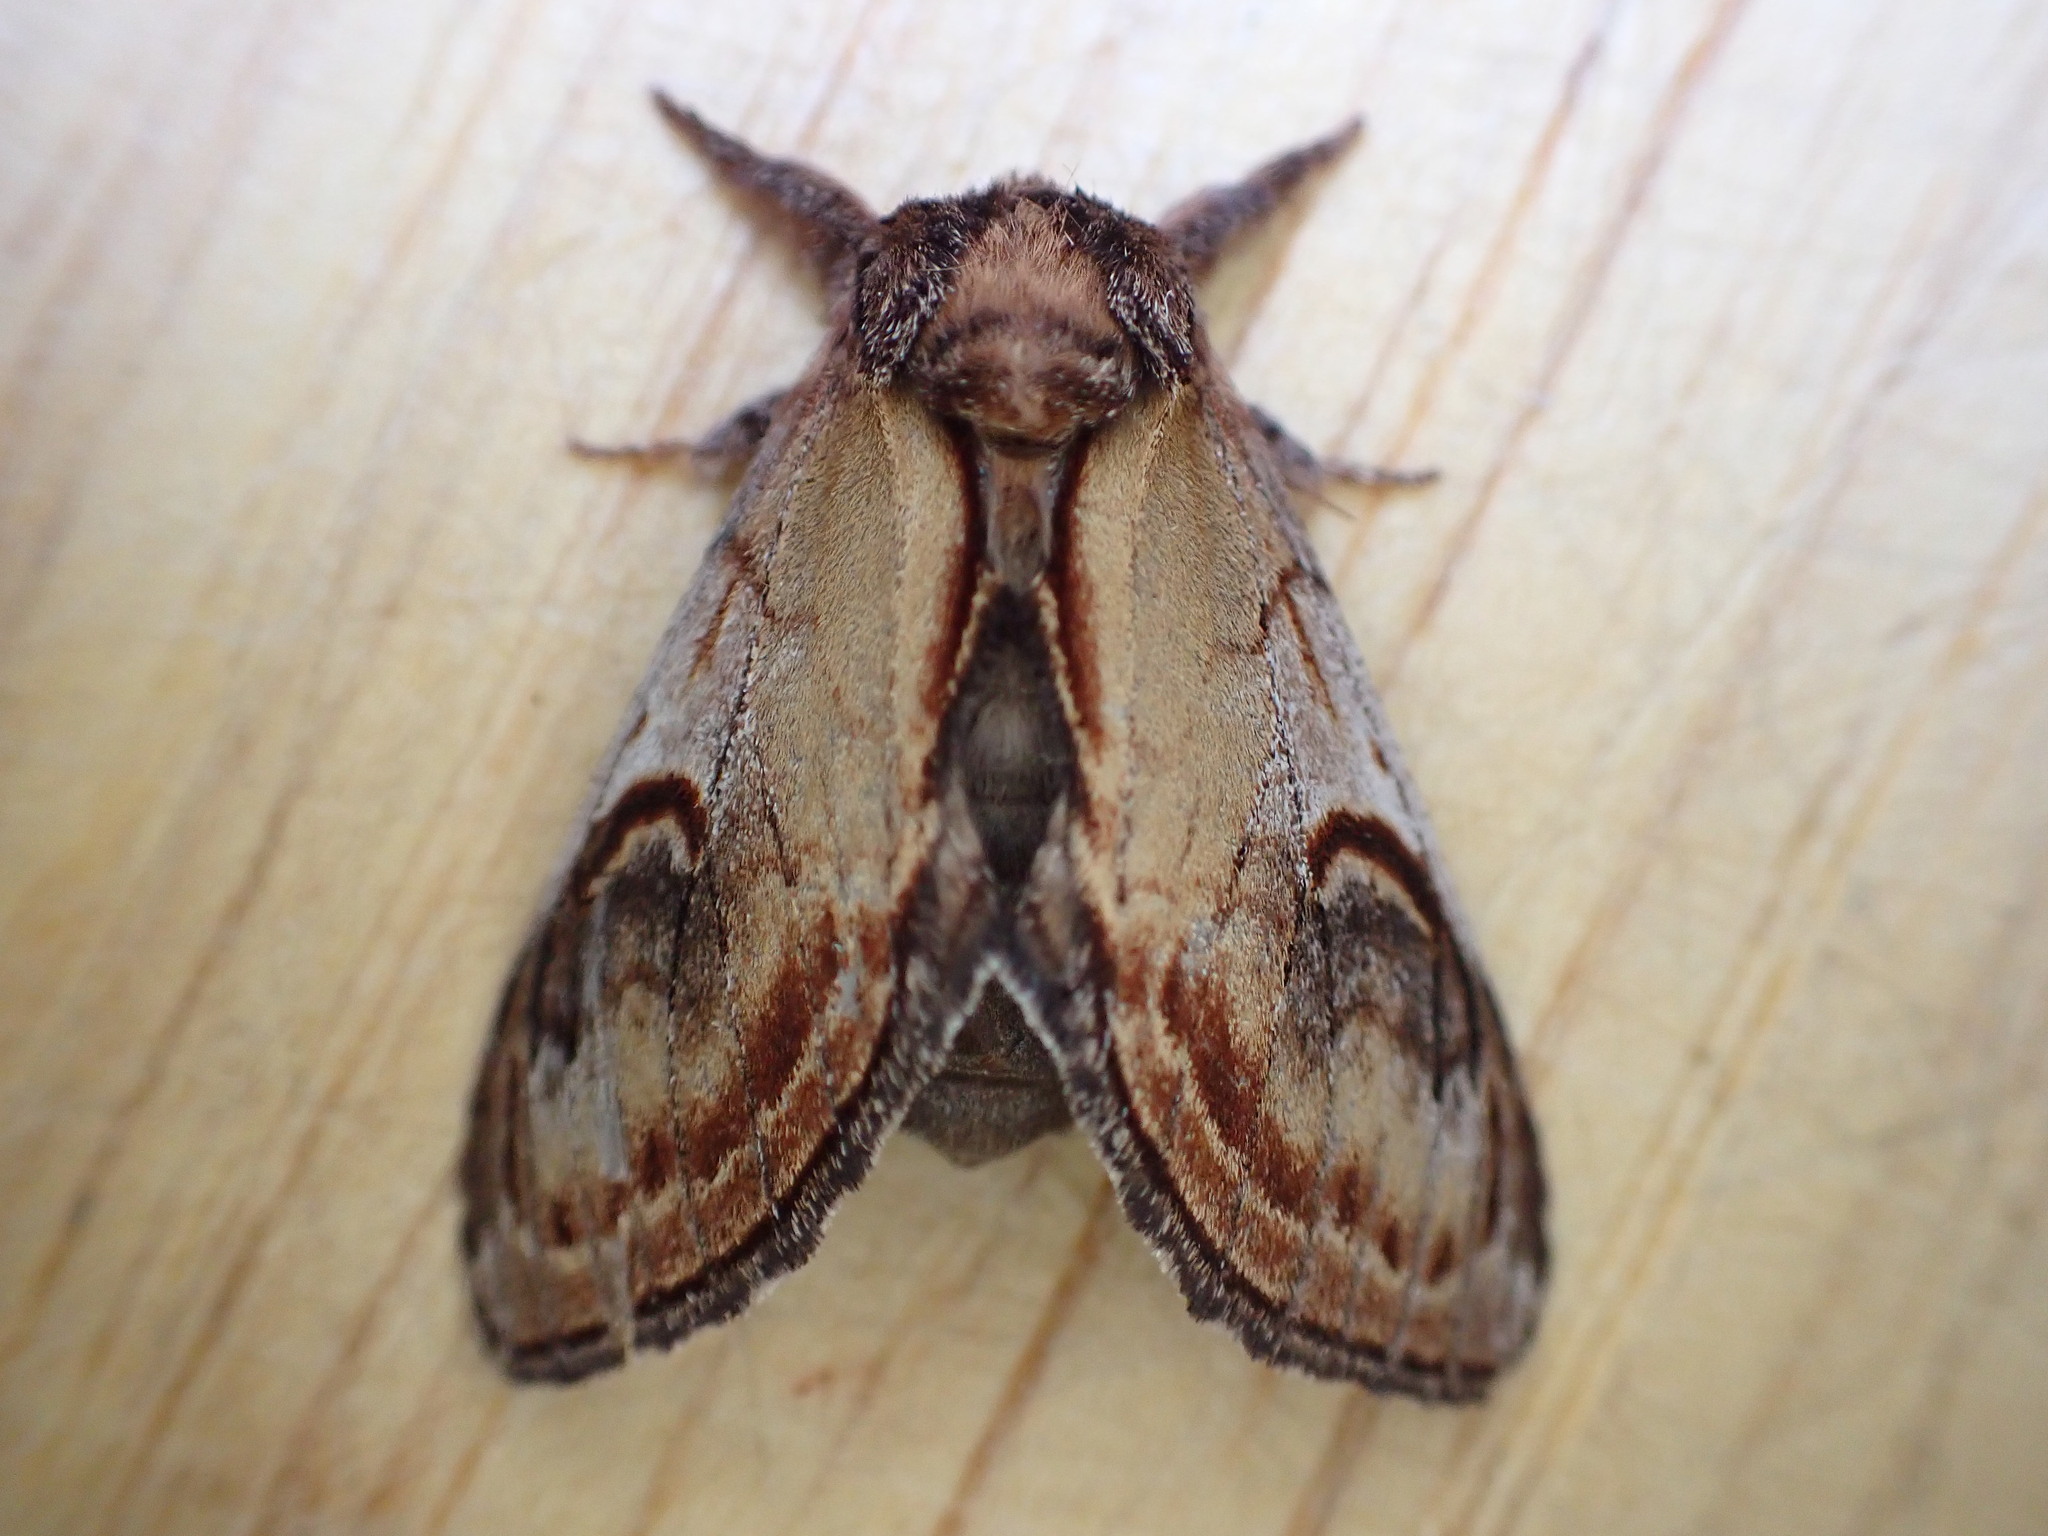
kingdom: Animalia
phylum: Arthropoda
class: Insecta
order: Lepidoptera
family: Notodontidae
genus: Notodonta
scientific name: Notodonta ziczac
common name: Pebble prominent
